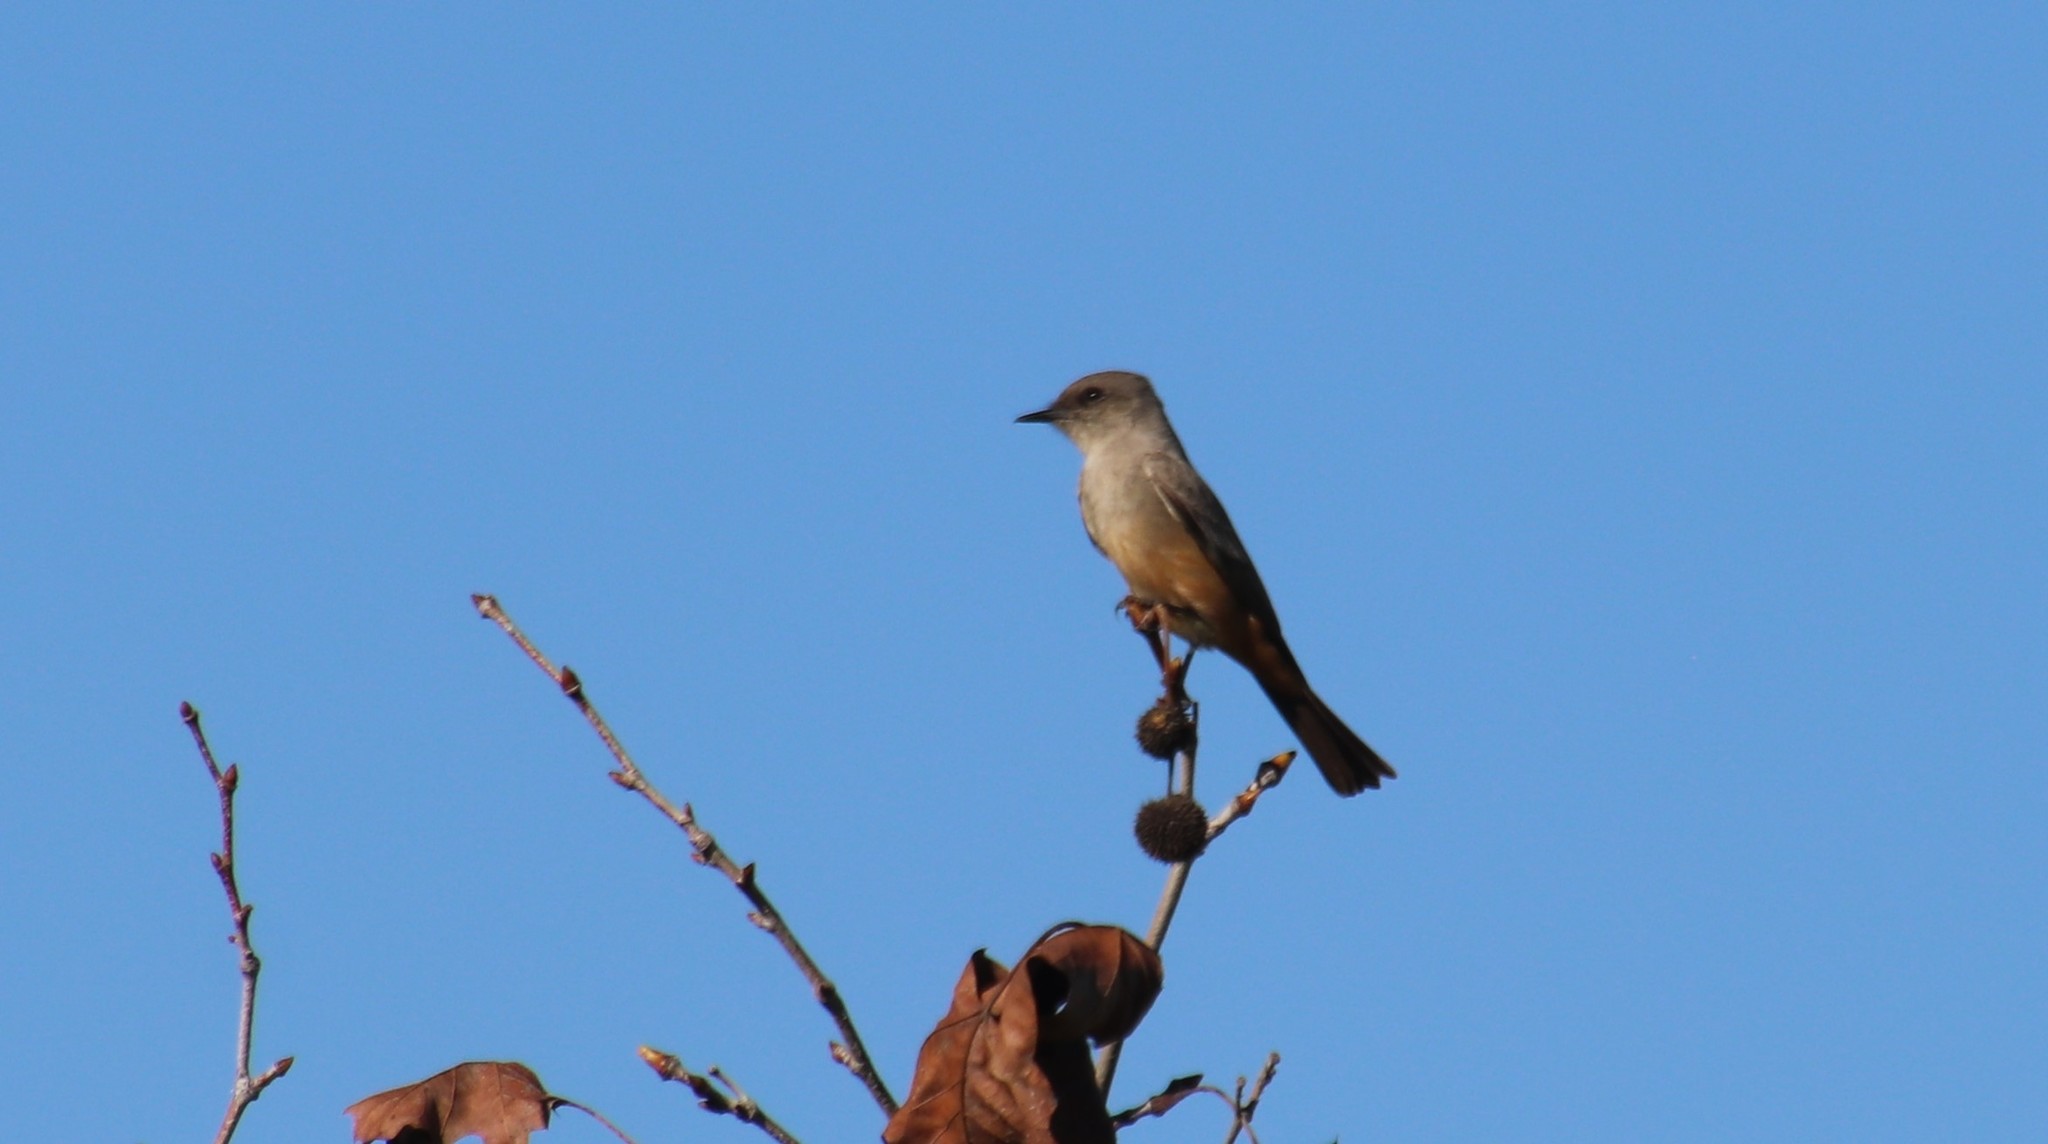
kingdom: Animalia
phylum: Chordata
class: Aves
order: Passeriformes
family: Tyrannidae
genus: Sayornis
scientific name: Sayornis saya
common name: Say's phoebe
